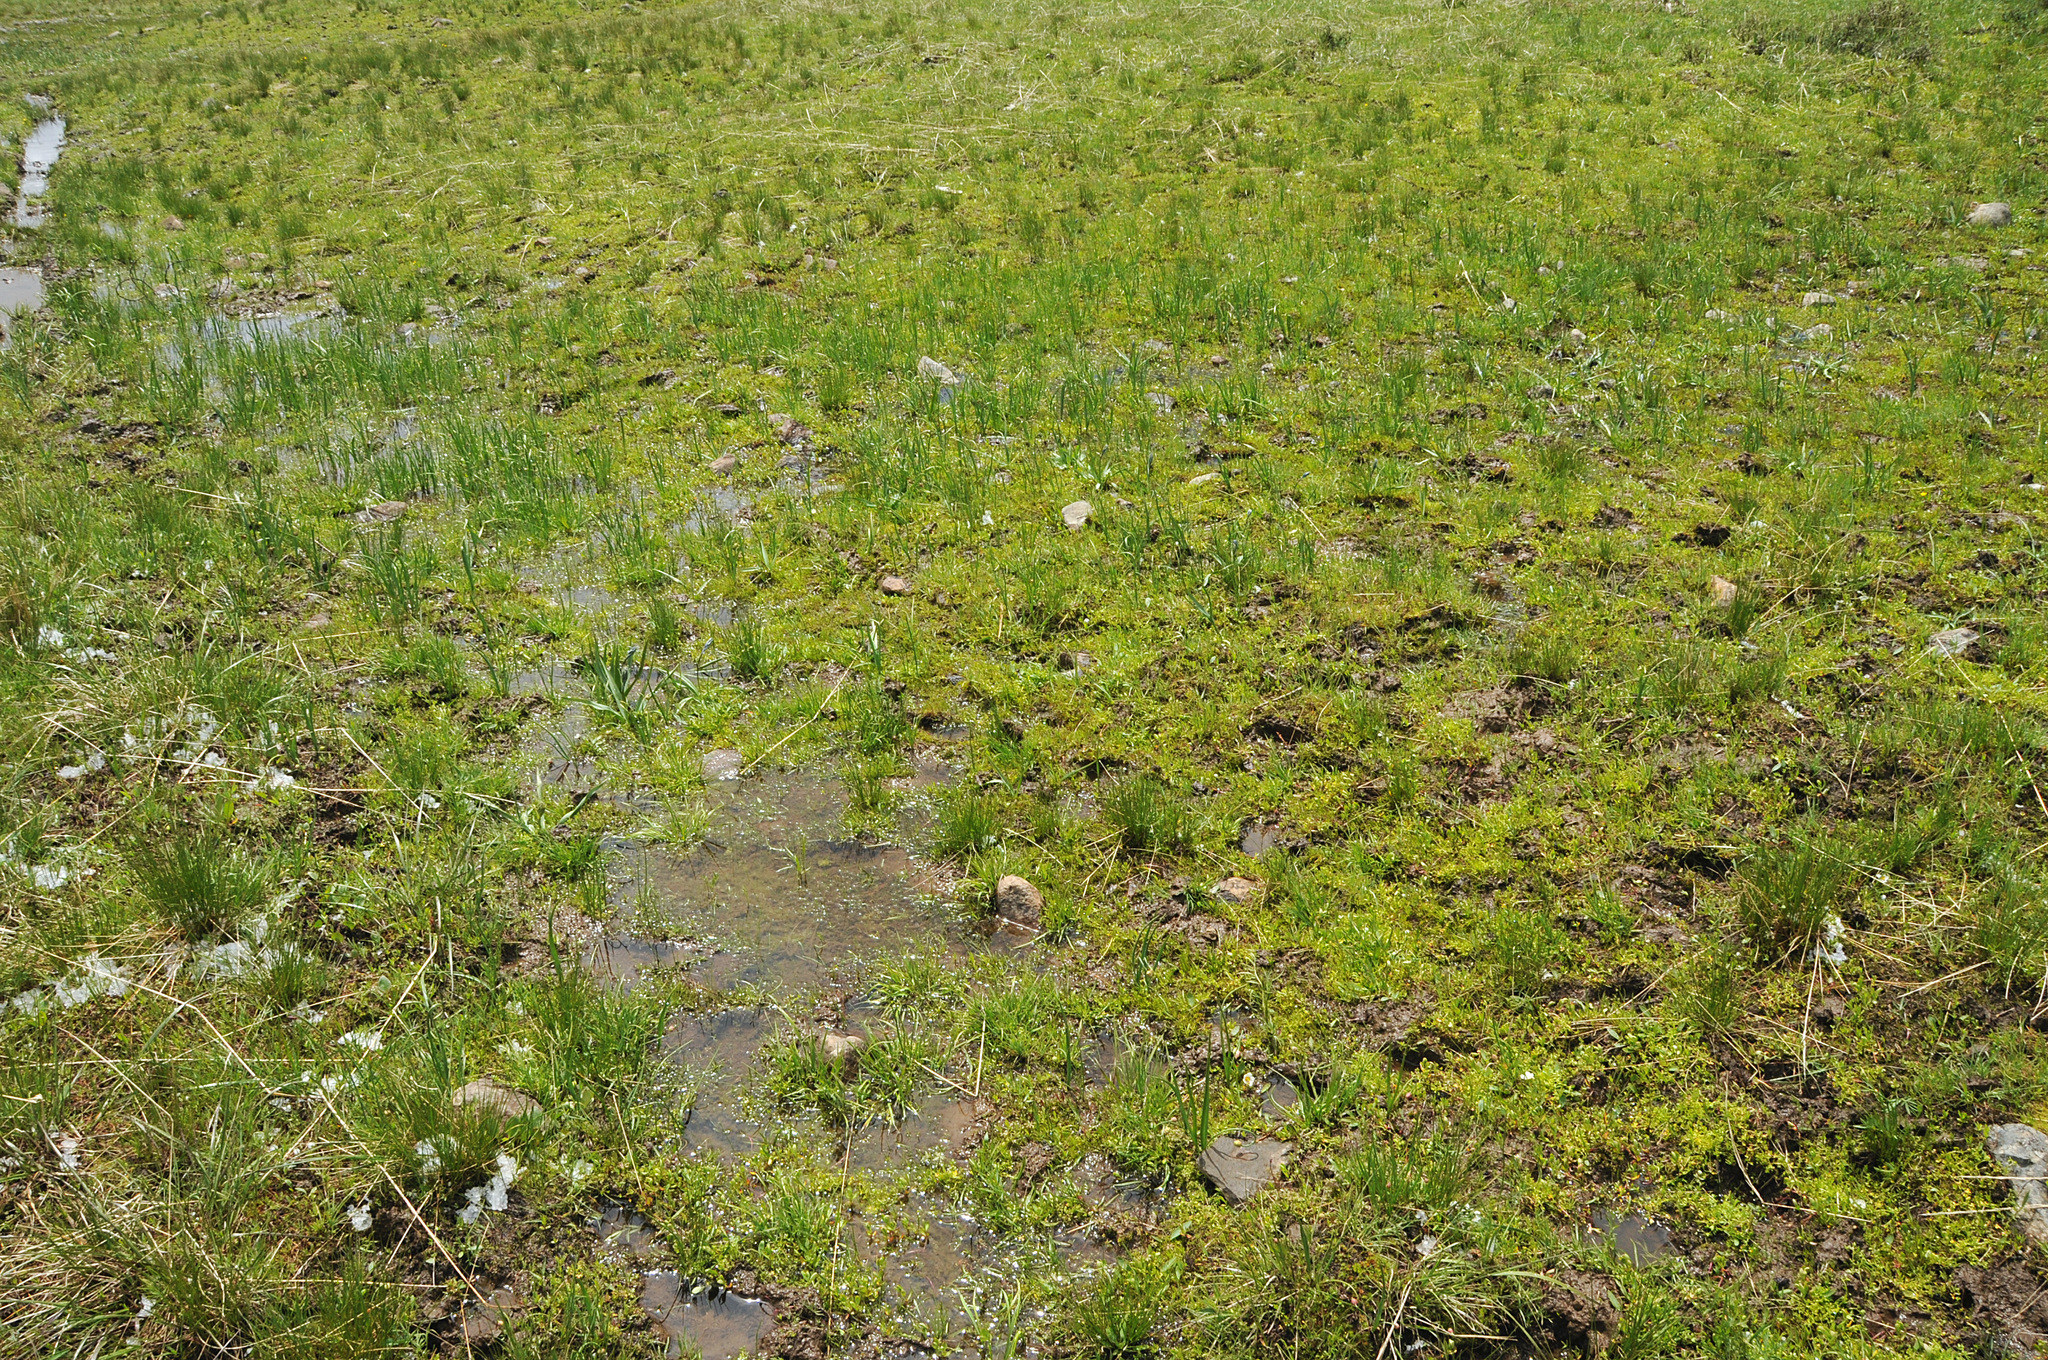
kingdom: Plantae
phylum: Tracheophyta
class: Lycopodiopsida
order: Isoetales
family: Isoetaceae
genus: Isoetes
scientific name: Isoetes minima
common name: Midget quillwort
